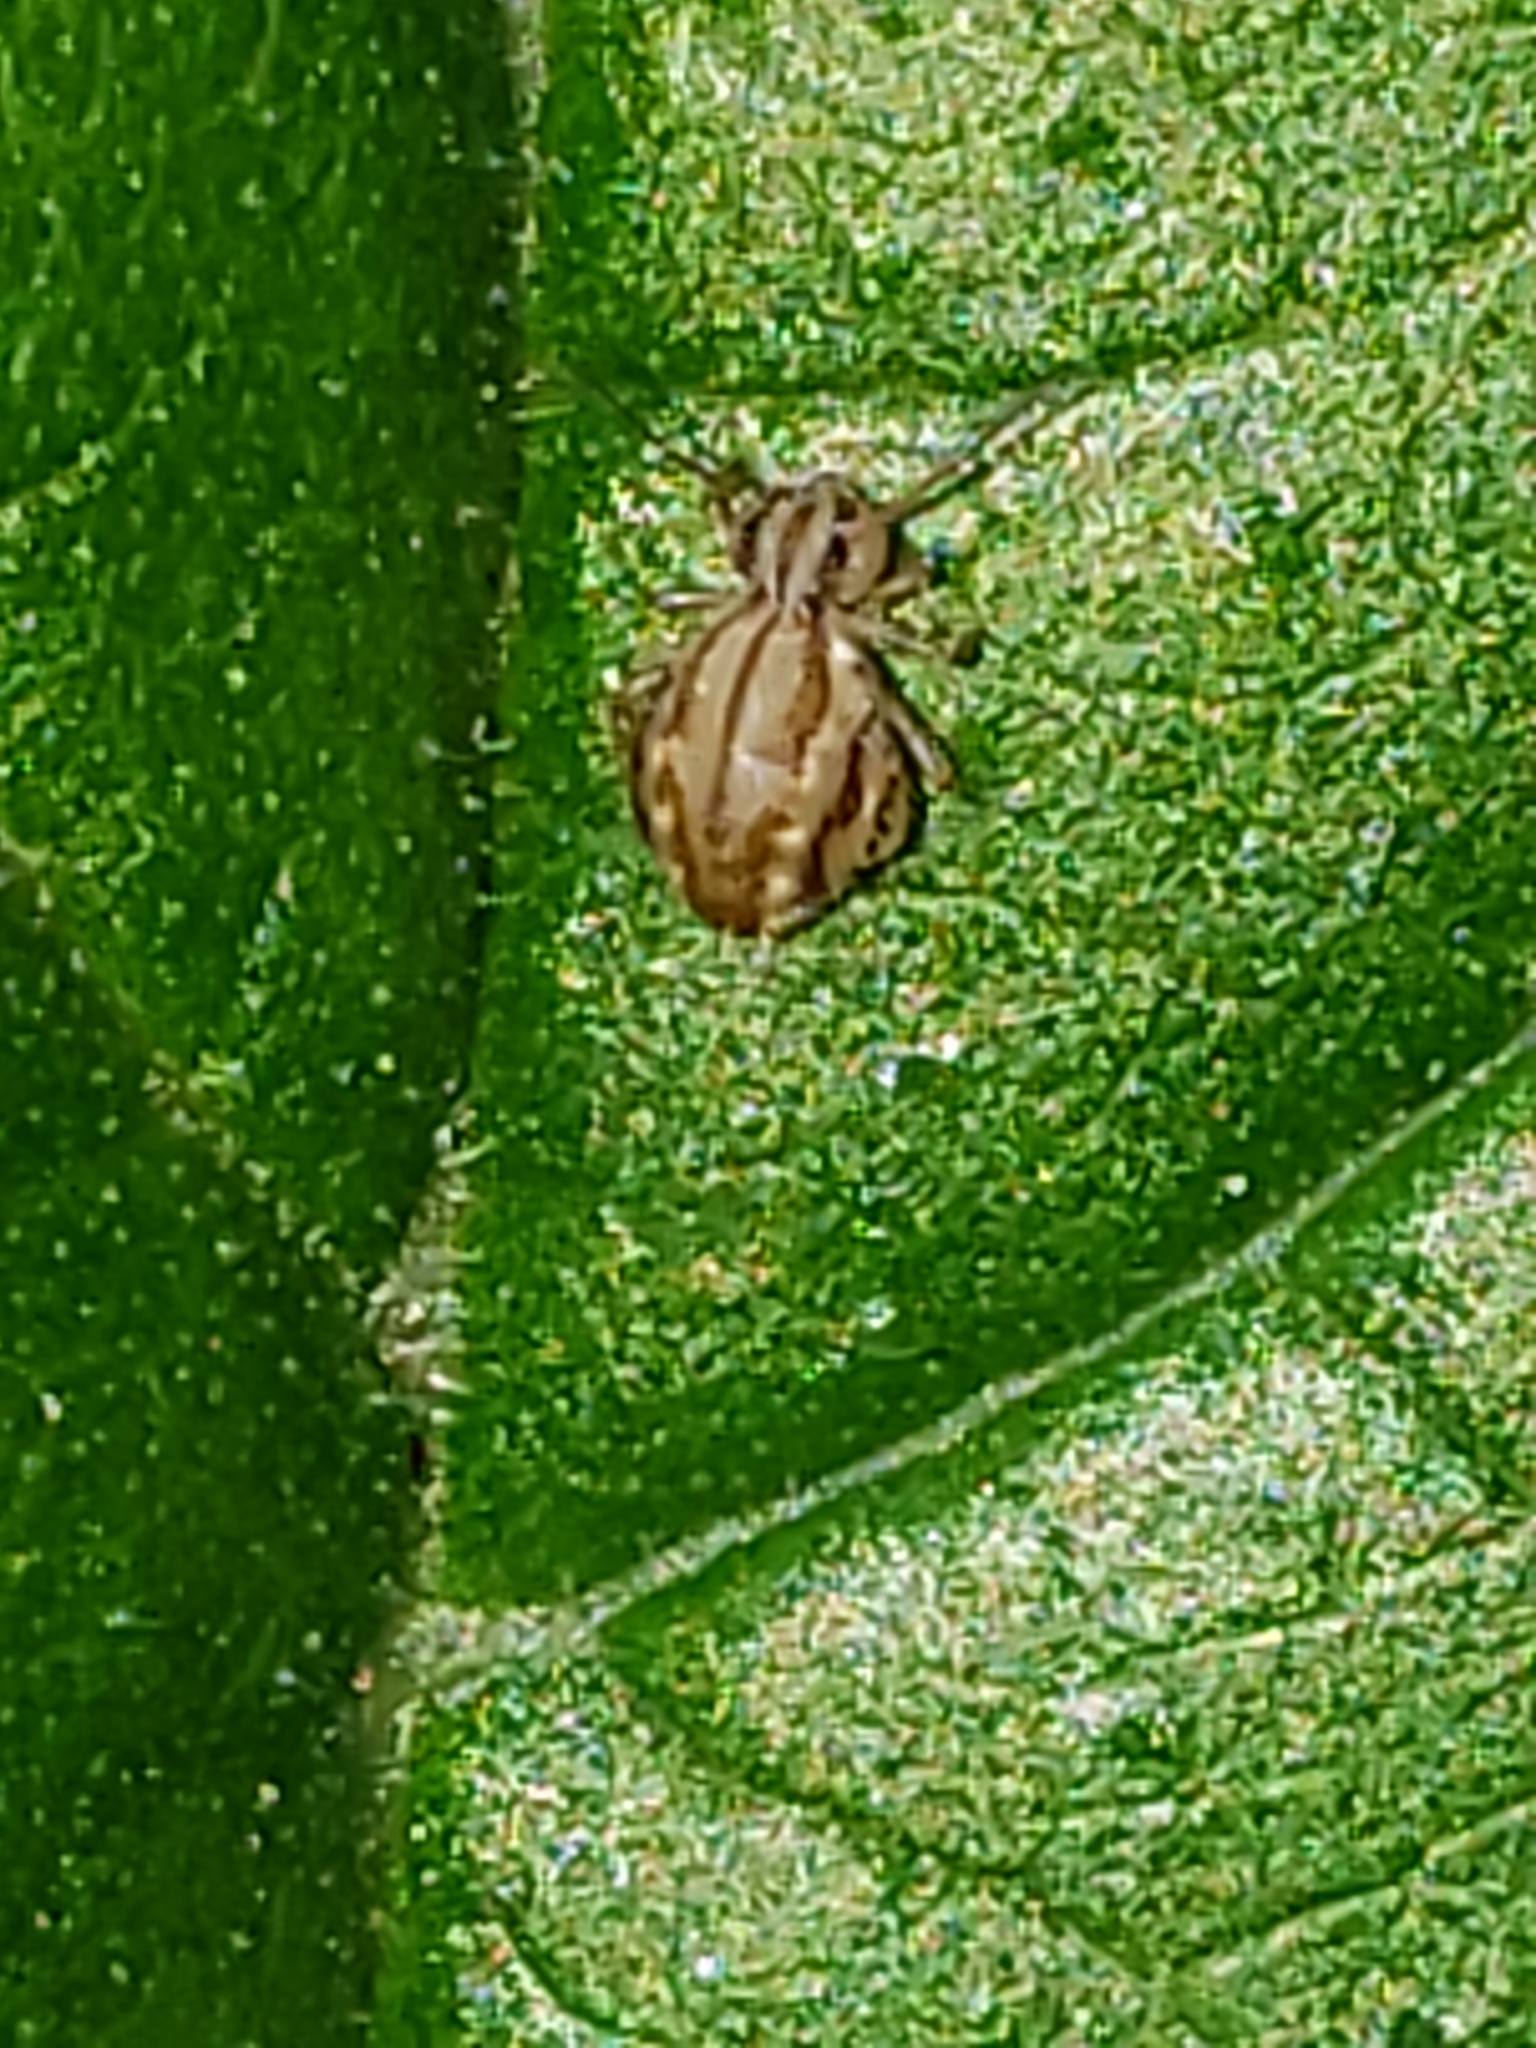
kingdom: Animalia
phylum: Arthropoda
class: Collembola
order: Symphypleona
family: Sminthuridae
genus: Sminthurus
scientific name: Sminthurus mencenbergae
